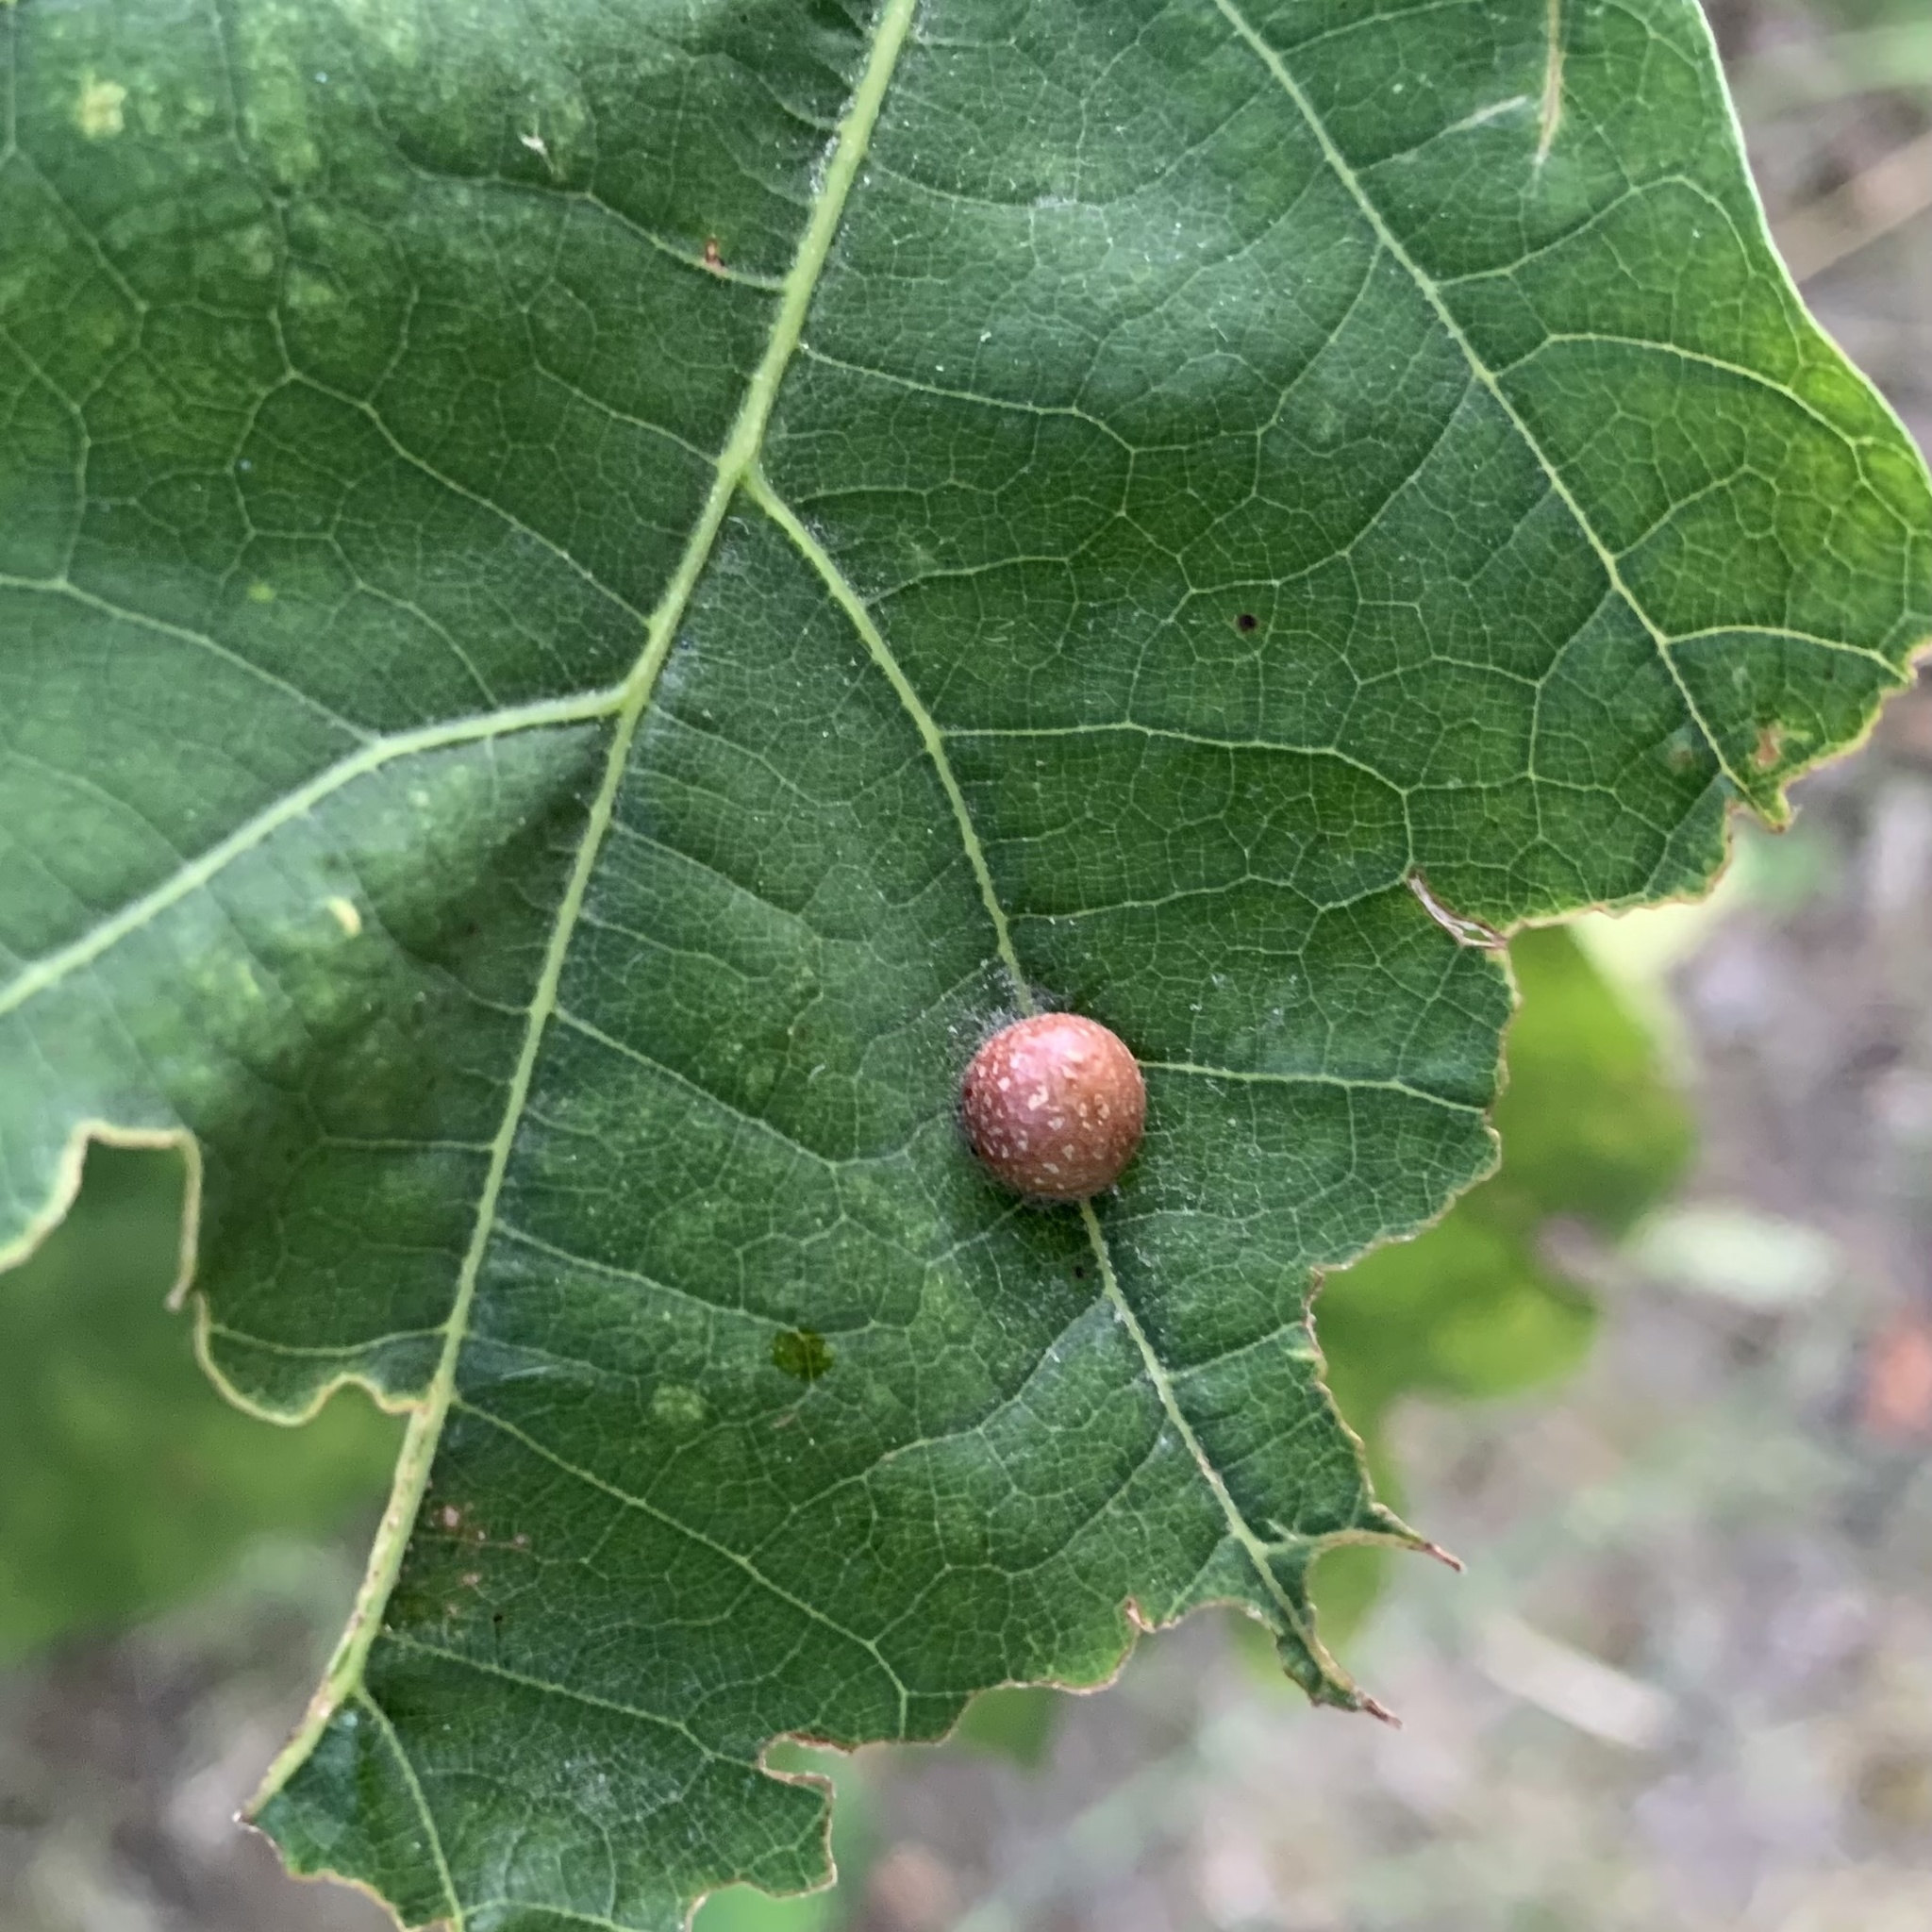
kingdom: Animalia
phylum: Arthropoda
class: Insecta
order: Diptera
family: Cecidomyiidae
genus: Polystepha
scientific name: Polystepha pilulae
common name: Oak leaf gall midge
